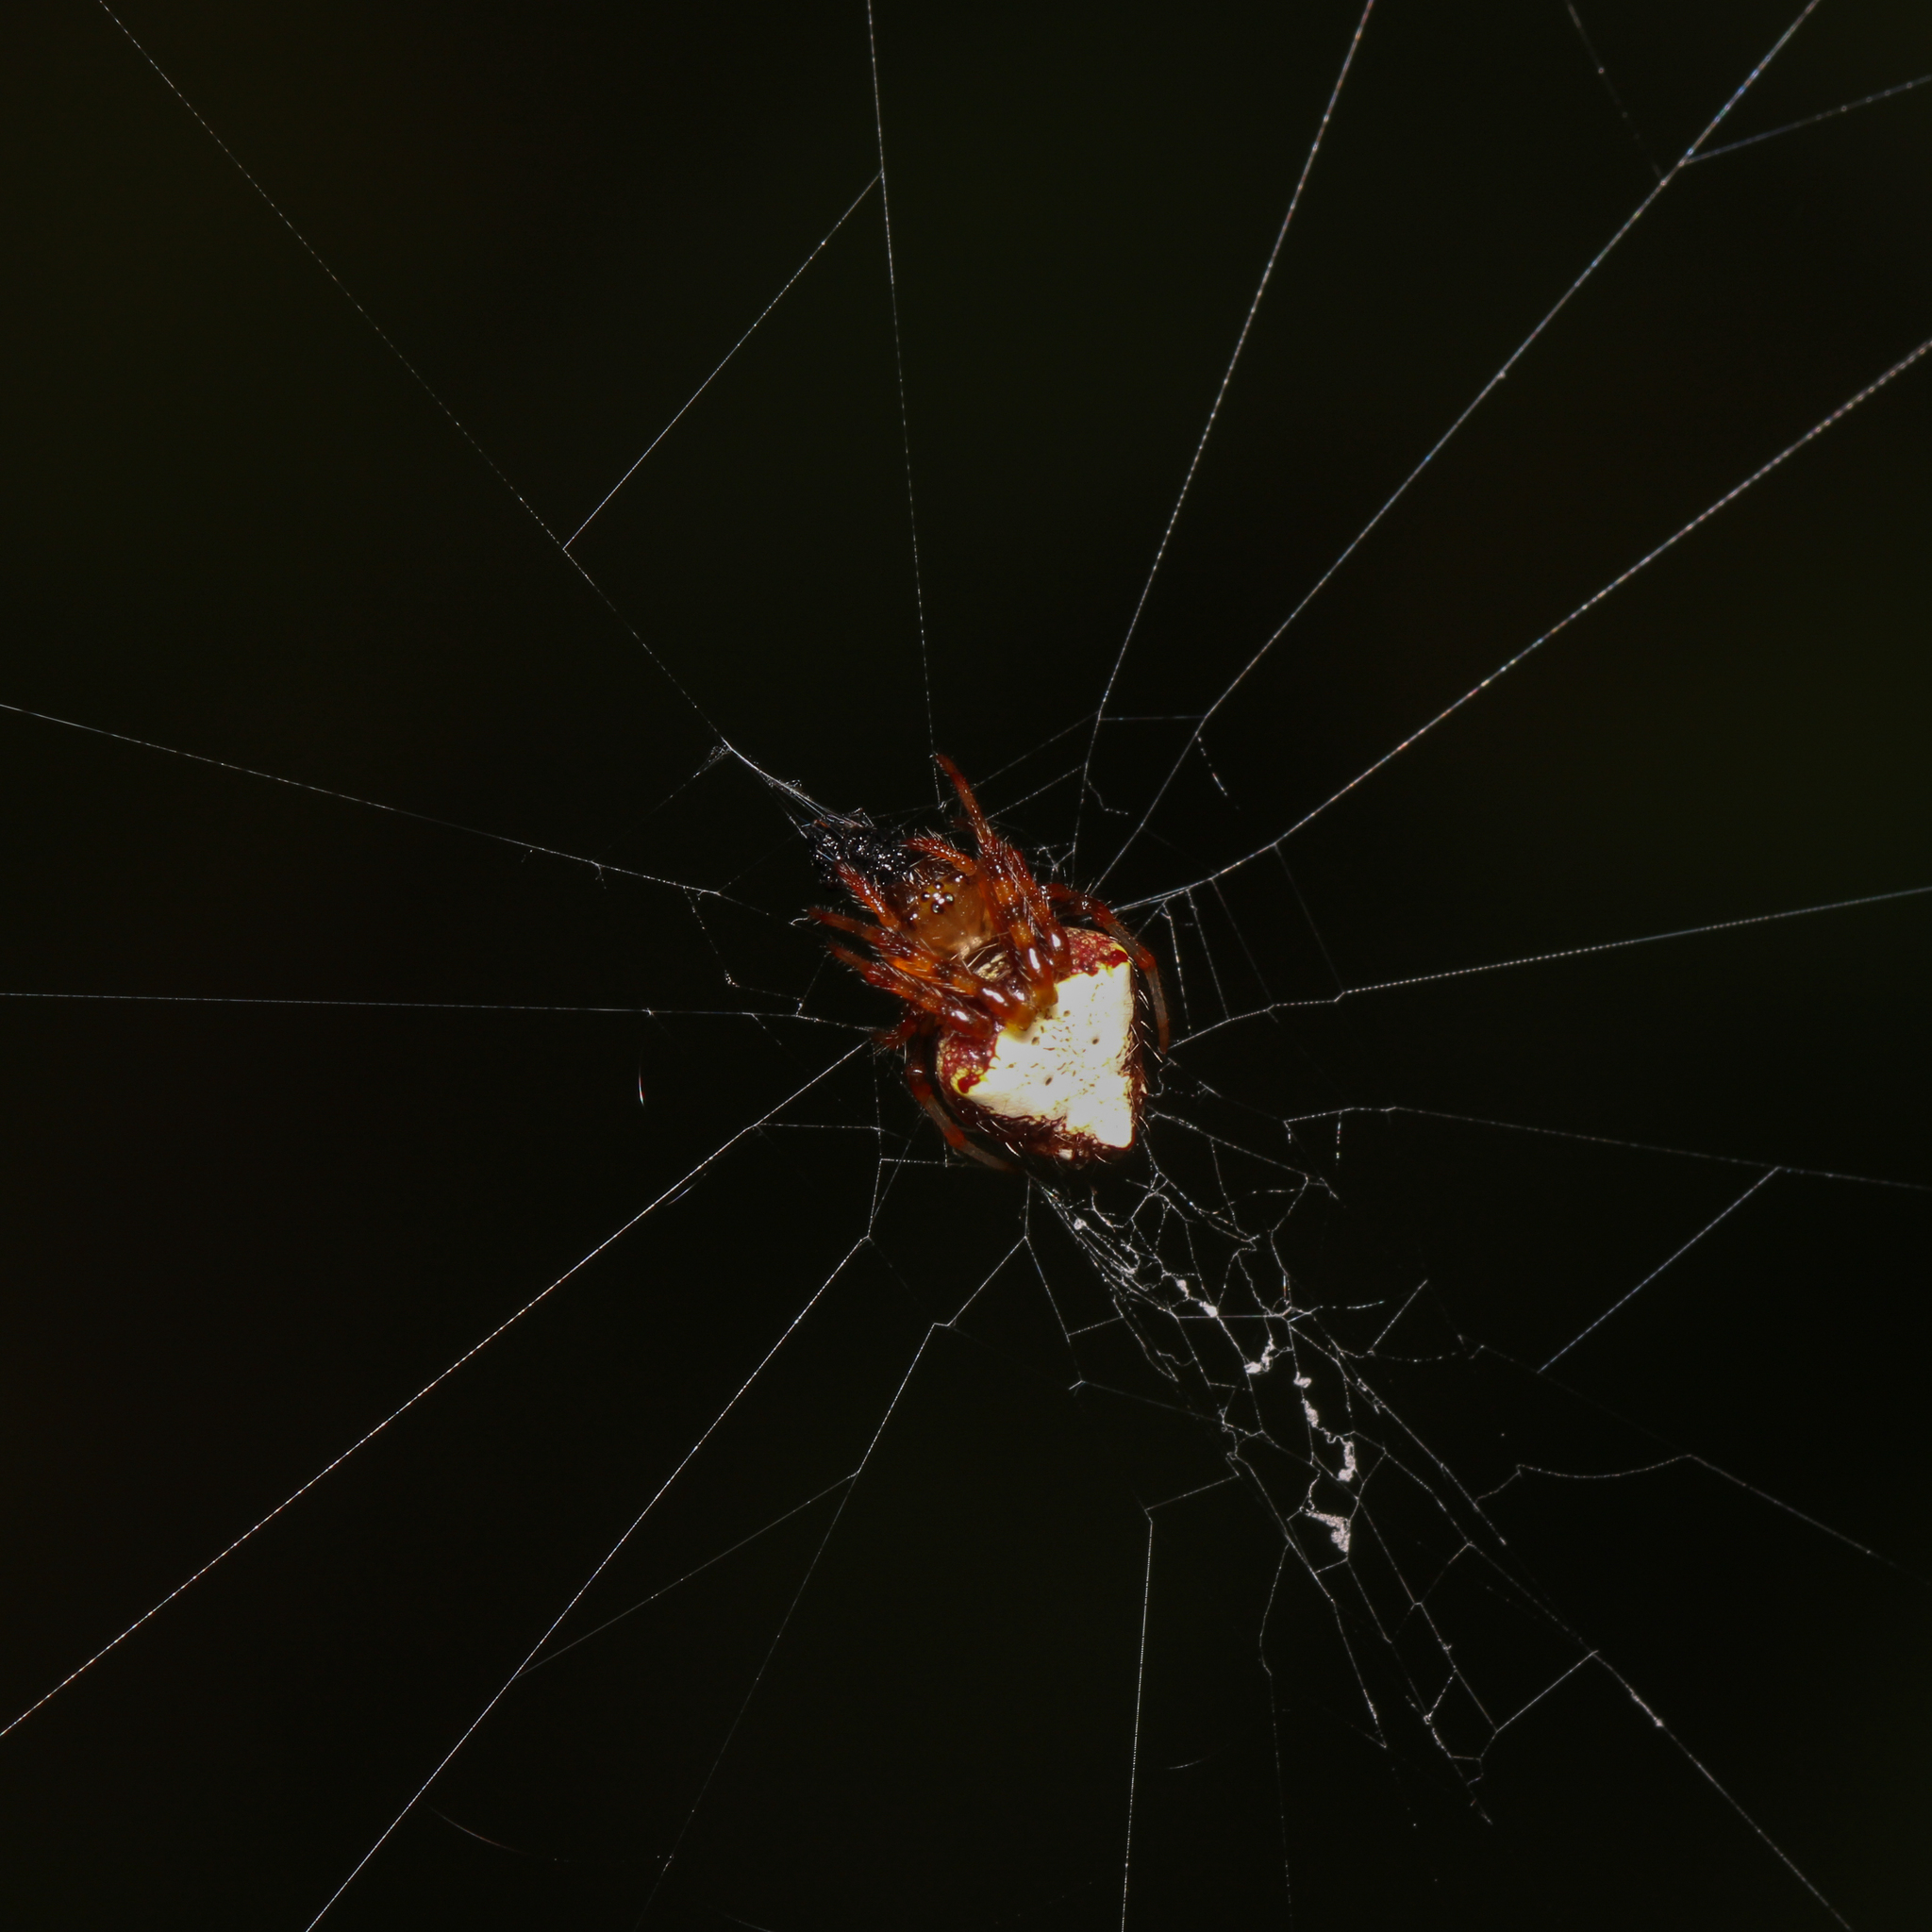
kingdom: Animalia
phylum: Arthropoda
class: Arachnida
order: Araneae
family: Araneidae
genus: Verrucosa
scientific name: Verrucosa arenata
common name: Orb weavers
